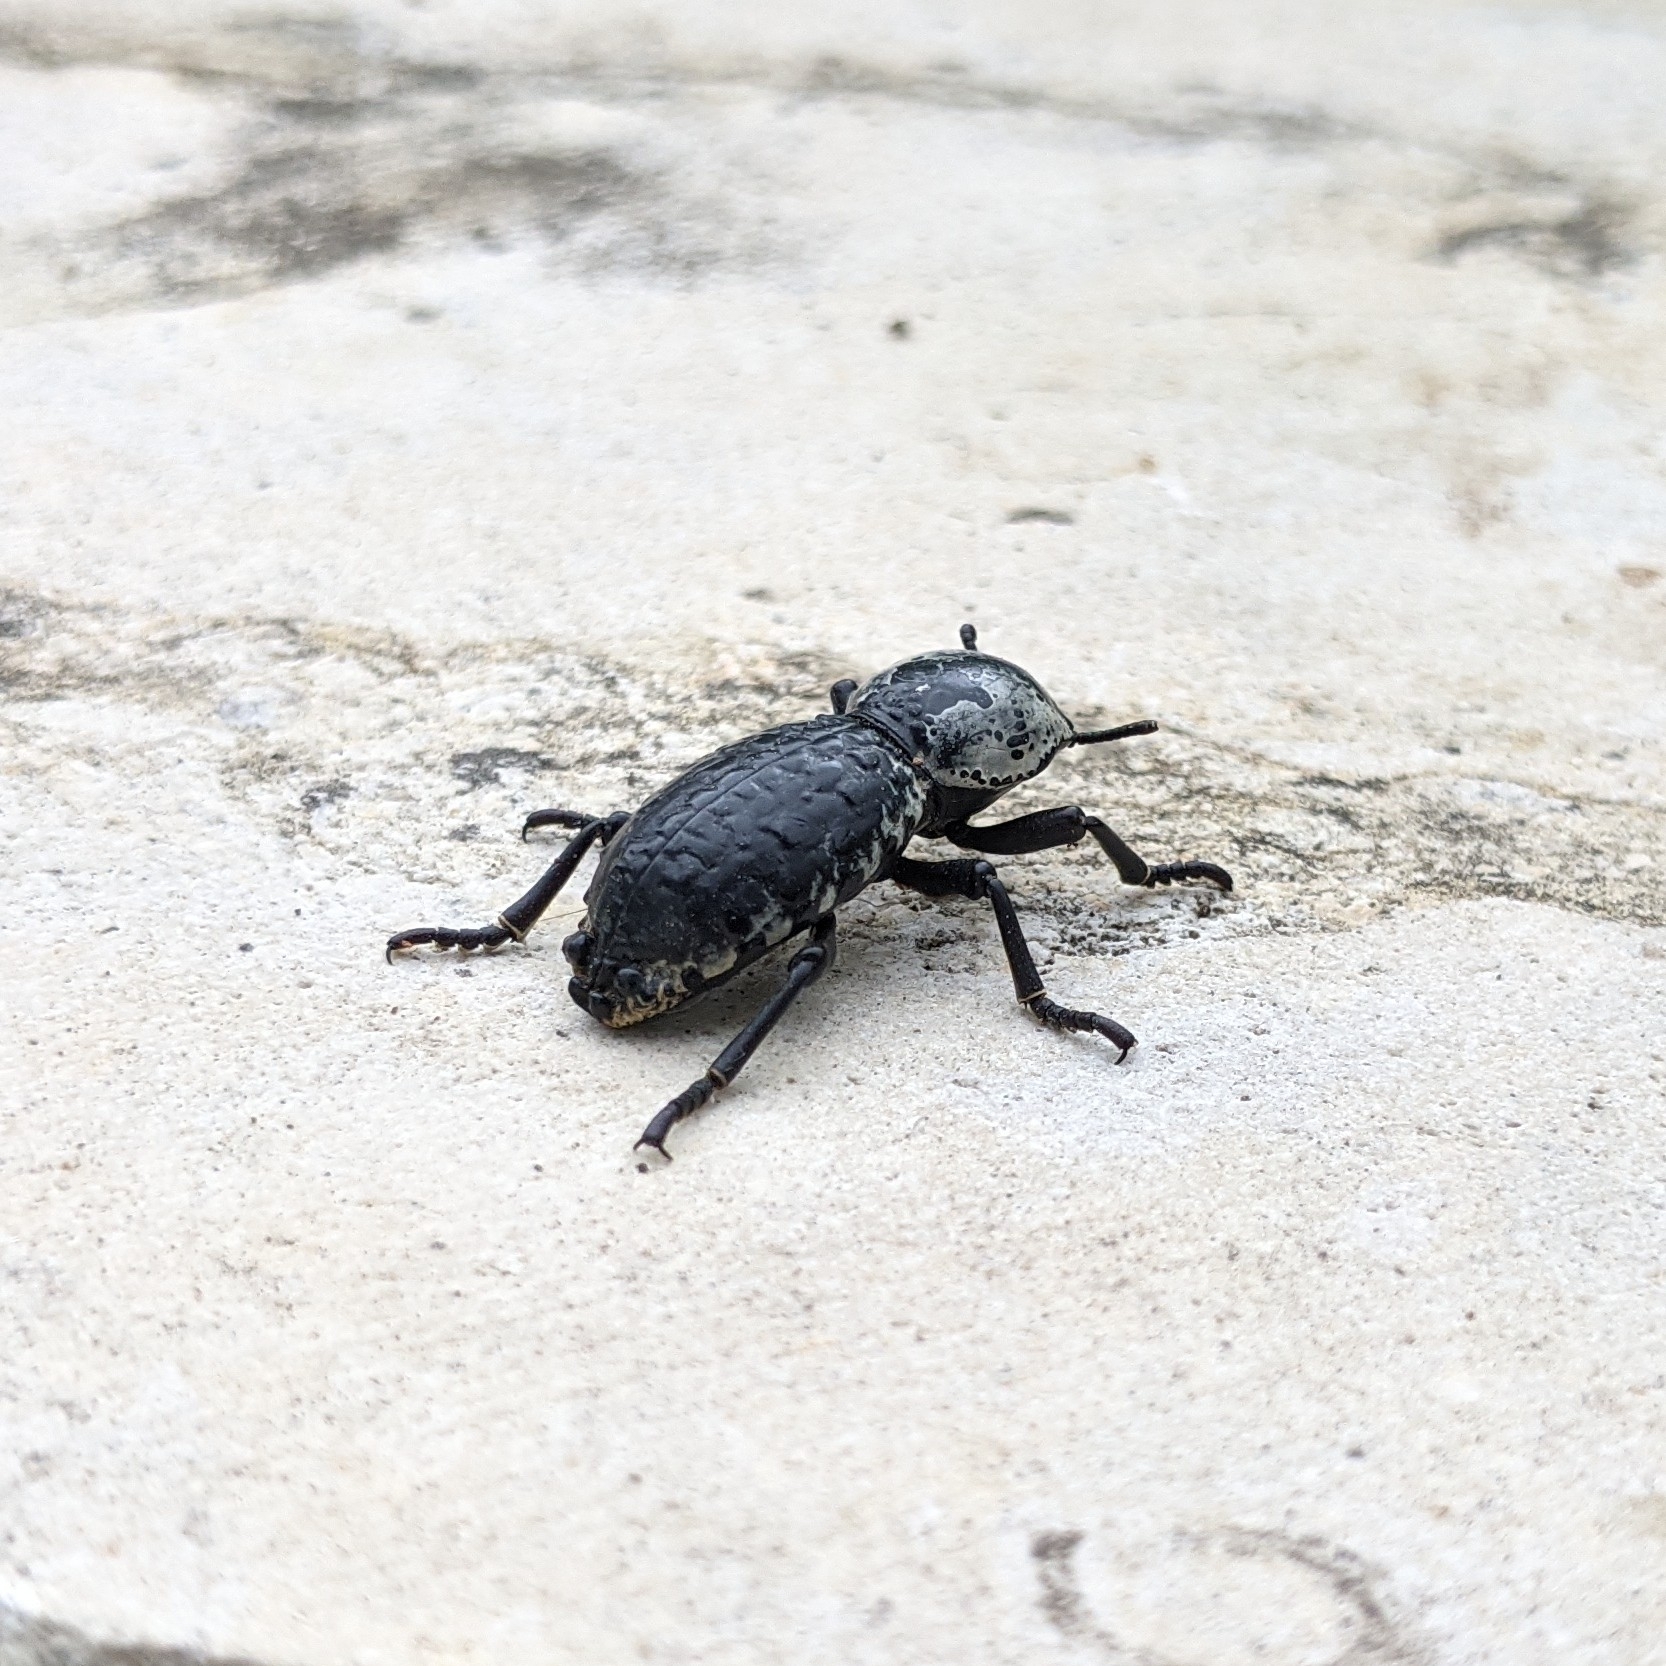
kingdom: Animalia
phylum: Arthropoda
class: Insecta
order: Coleoptera
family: Zopheridae
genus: Zopherus
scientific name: Zopherus nodulosus
